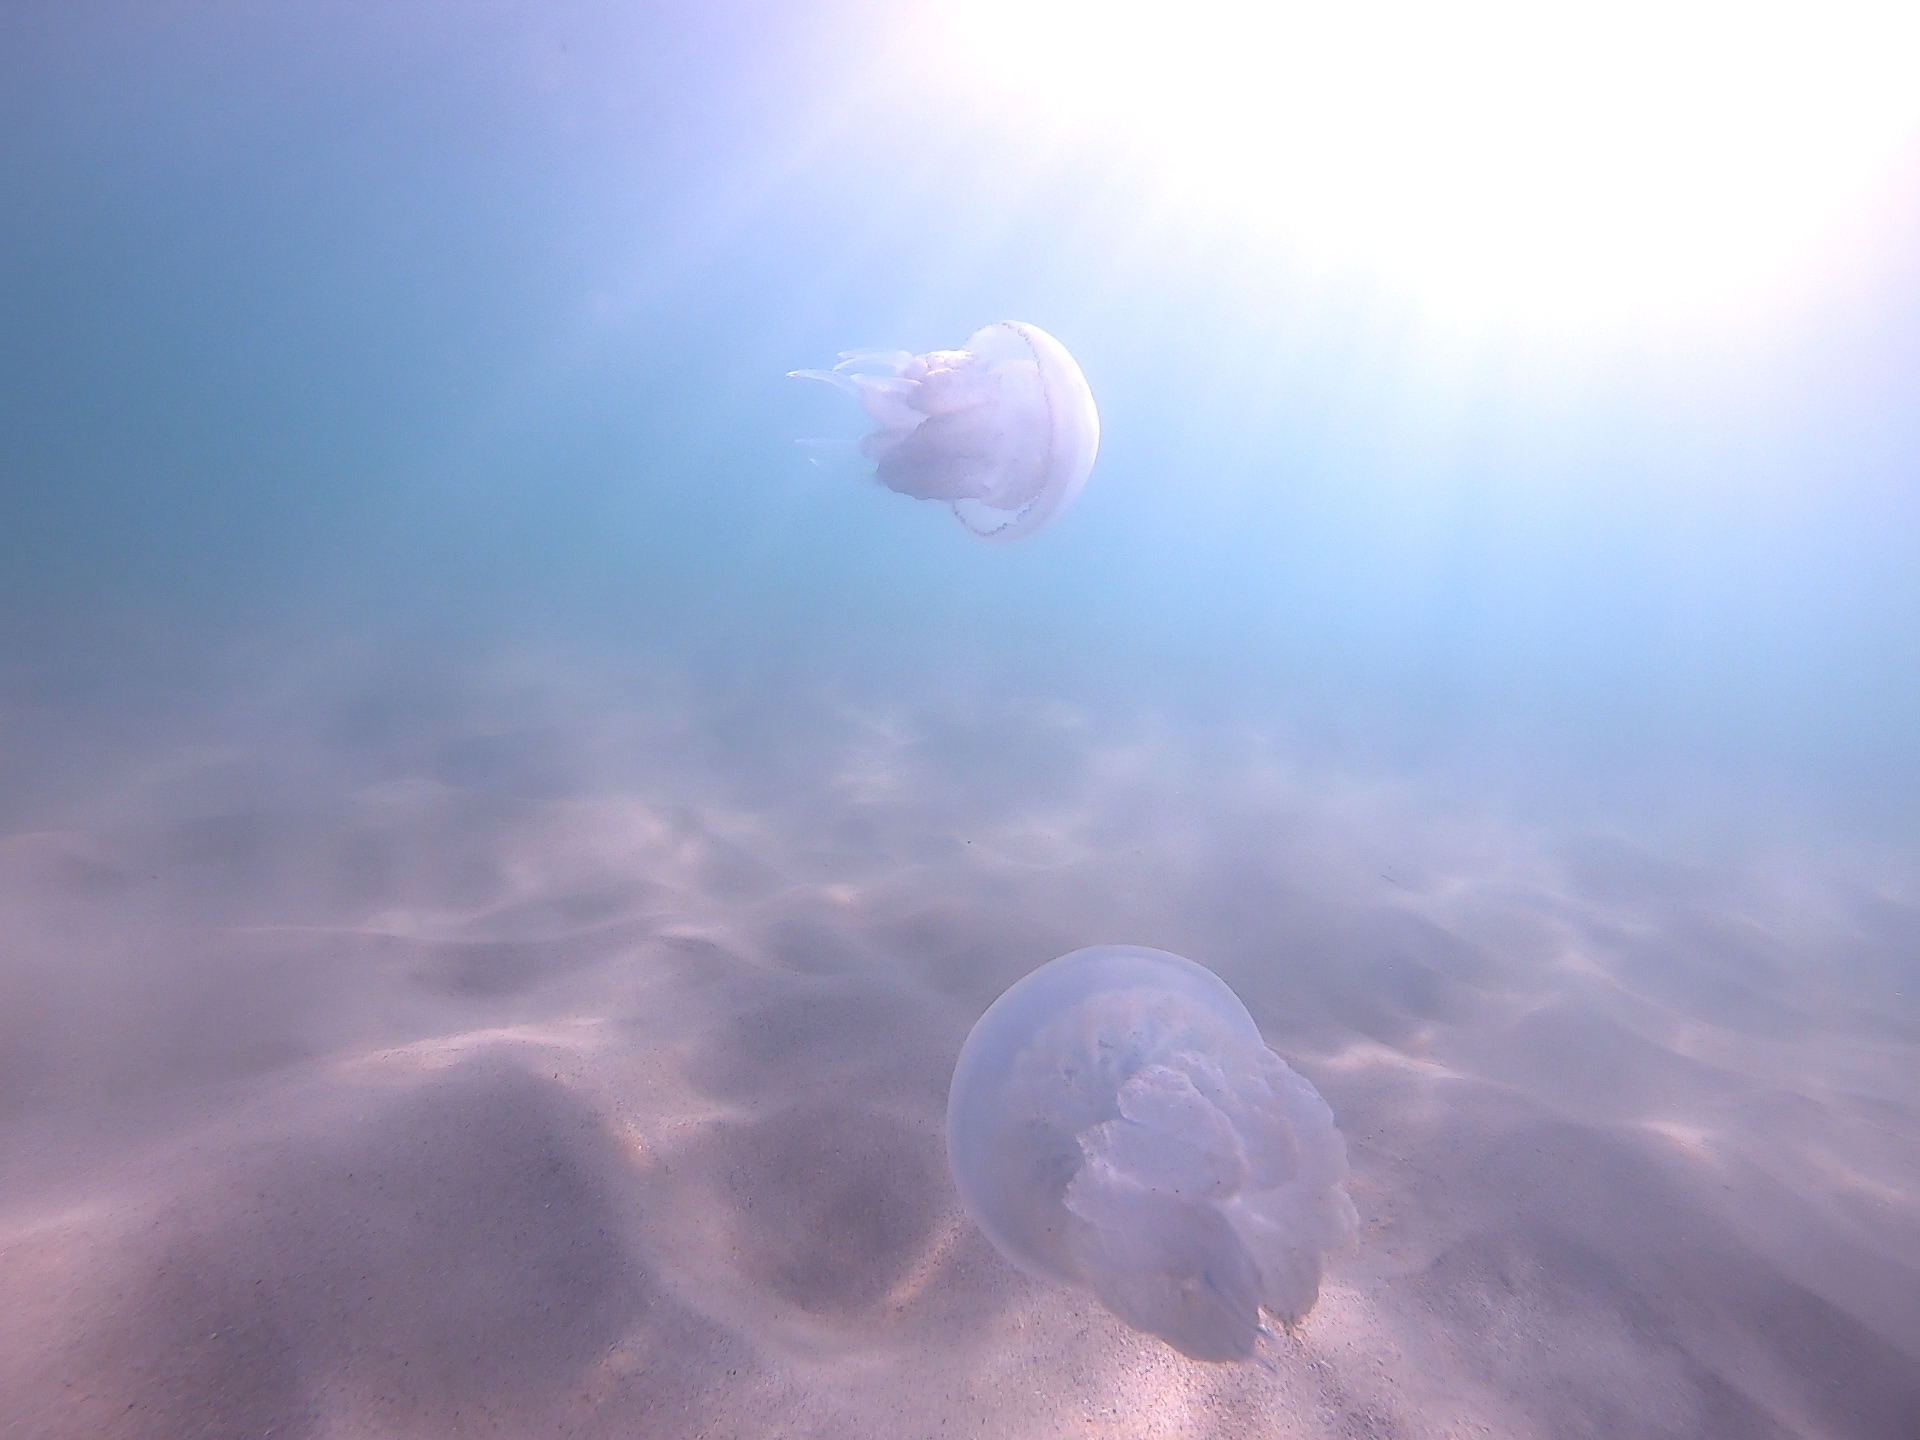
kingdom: Animalia
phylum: Cnidaria
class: Scyphozoa
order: Rhizostomeae
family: Rhizostomatidae
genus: Rhizostoma
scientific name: Rhizostoma pulmo
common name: Barrel jellyfish
